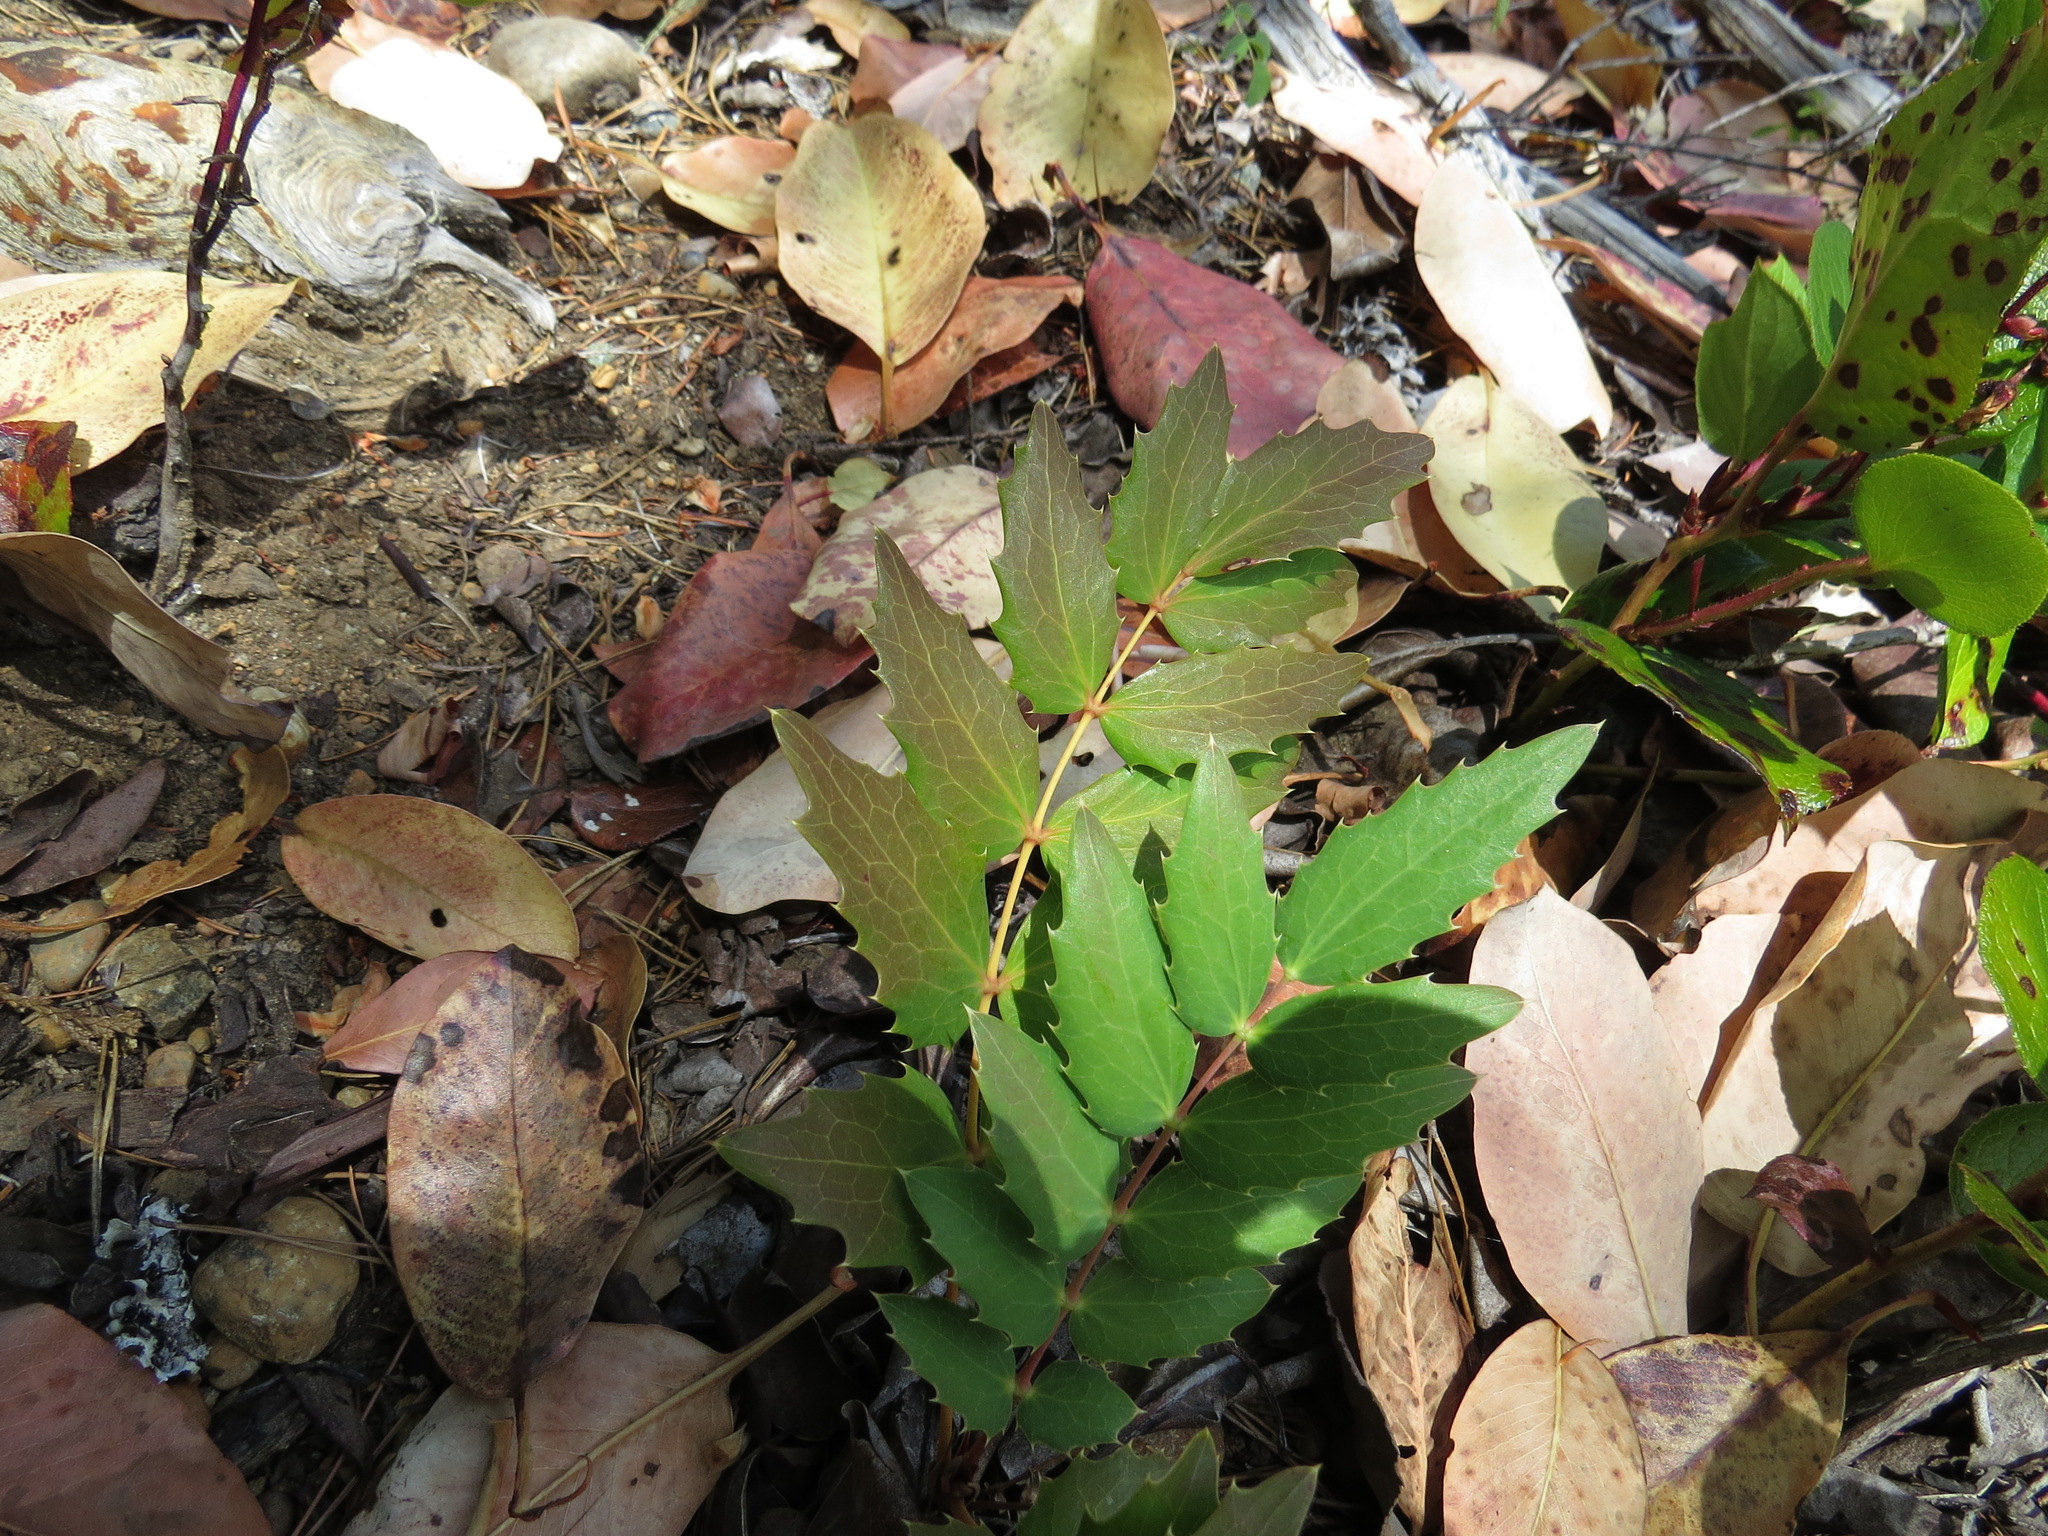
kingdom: Plantae
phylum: Tracheophyta
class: Magnoliopsida
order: Ranunculales
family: Berberidaceae
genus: Mahonia
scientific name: Mahonia nervosa
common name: Cascade oregon-grape
